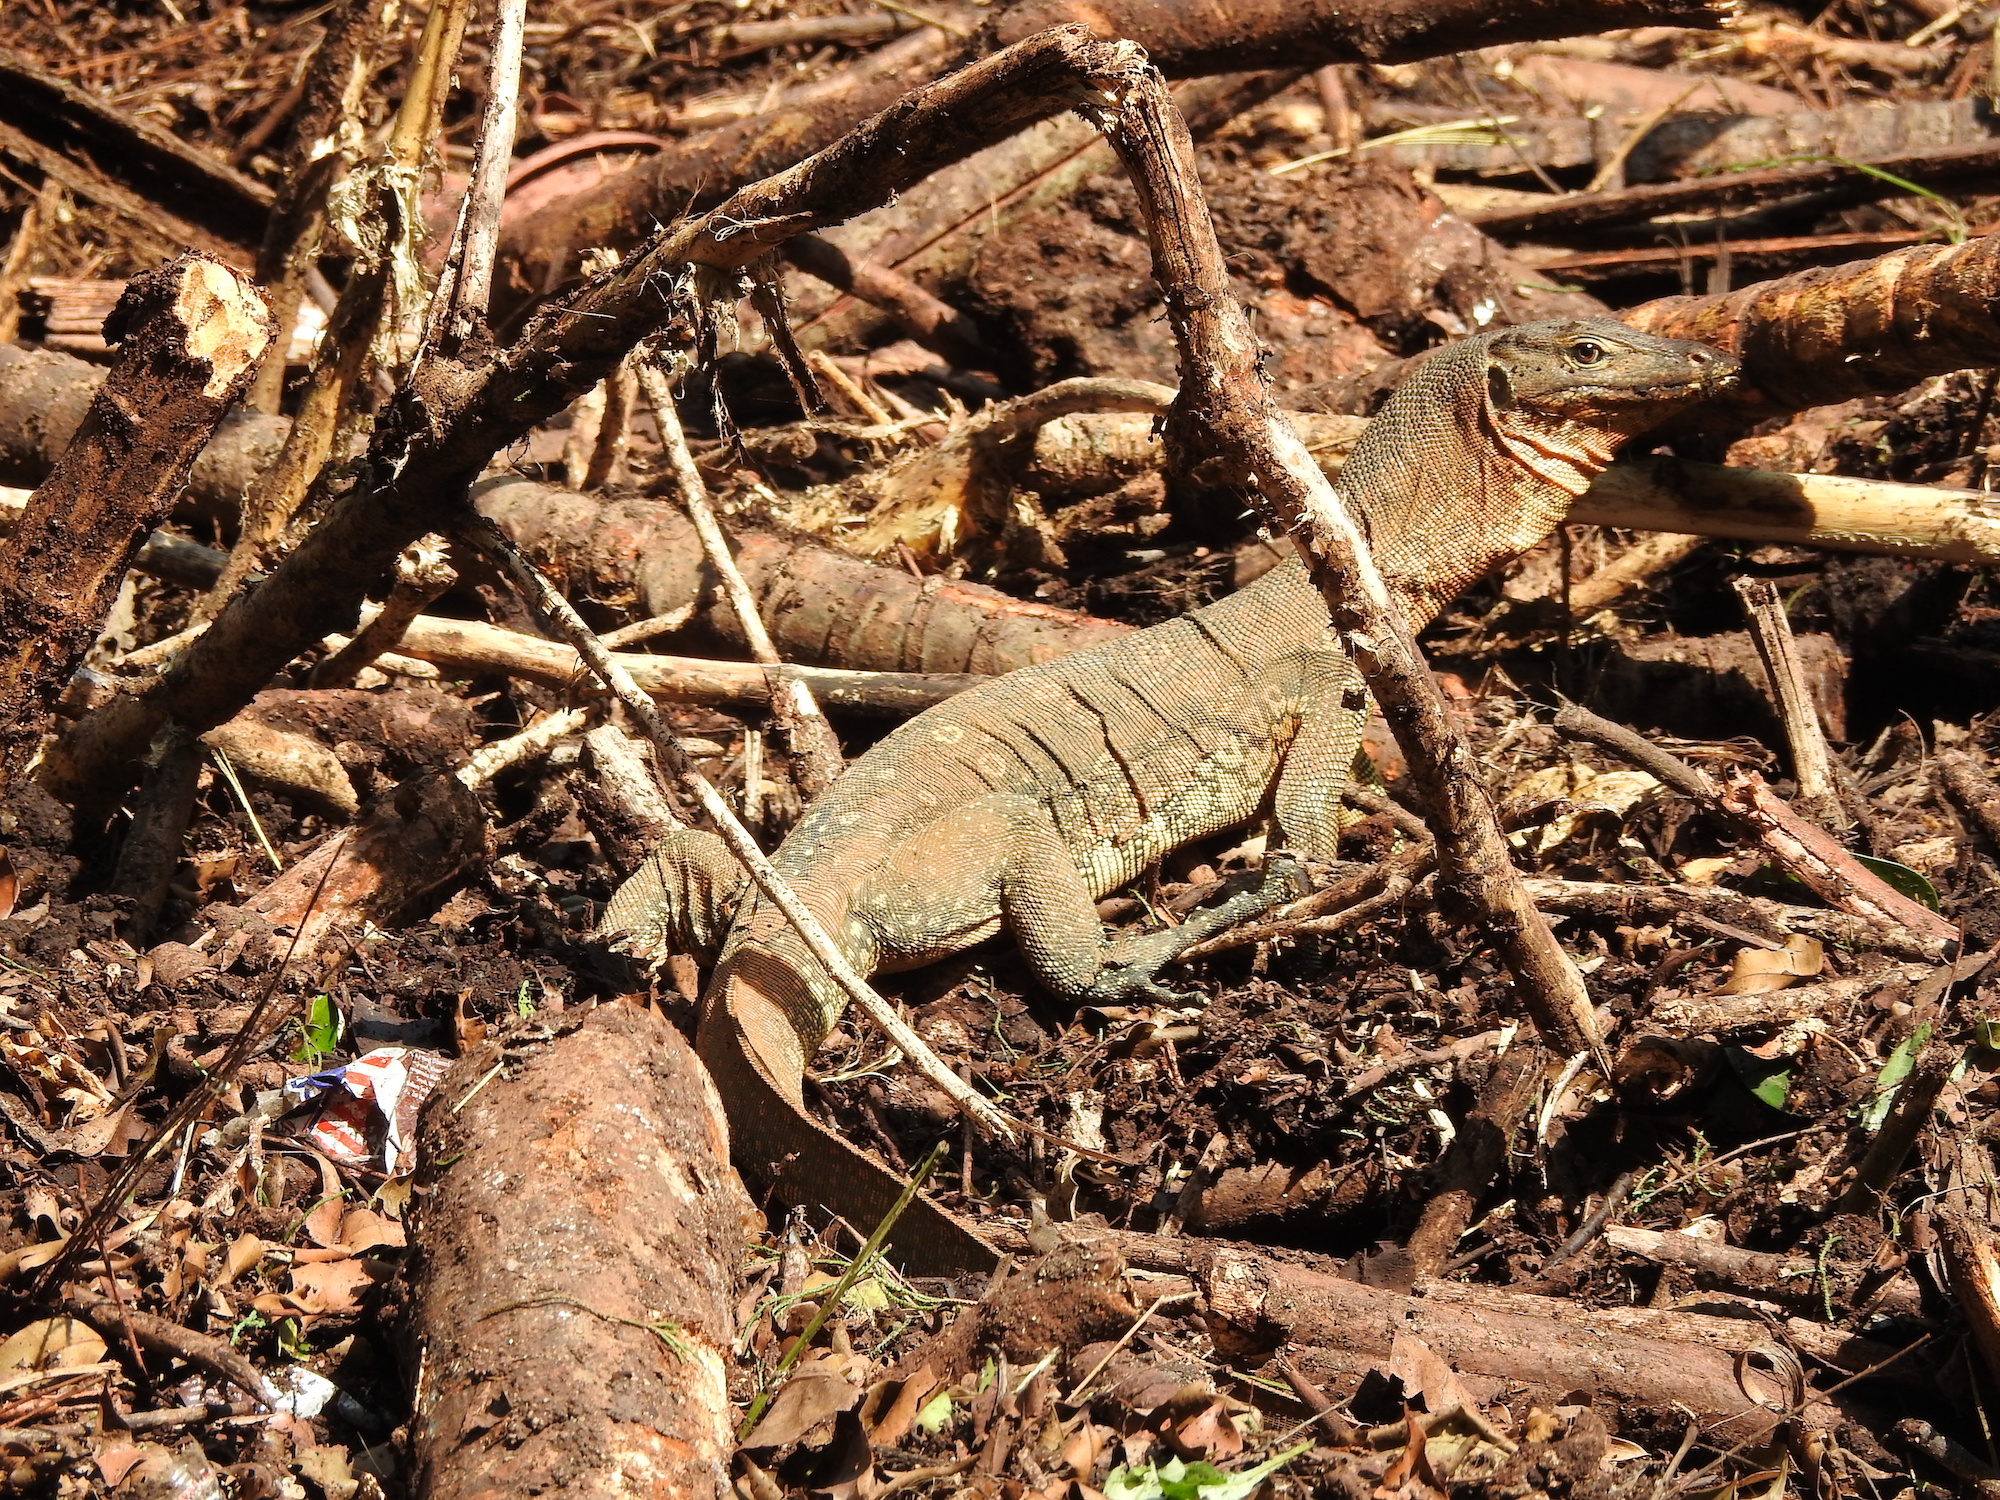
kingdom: Animalia
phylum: Chordata
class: Squamata
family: Varanidae
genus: Varanus
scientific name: Varanus salvator
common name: Common water monitor
